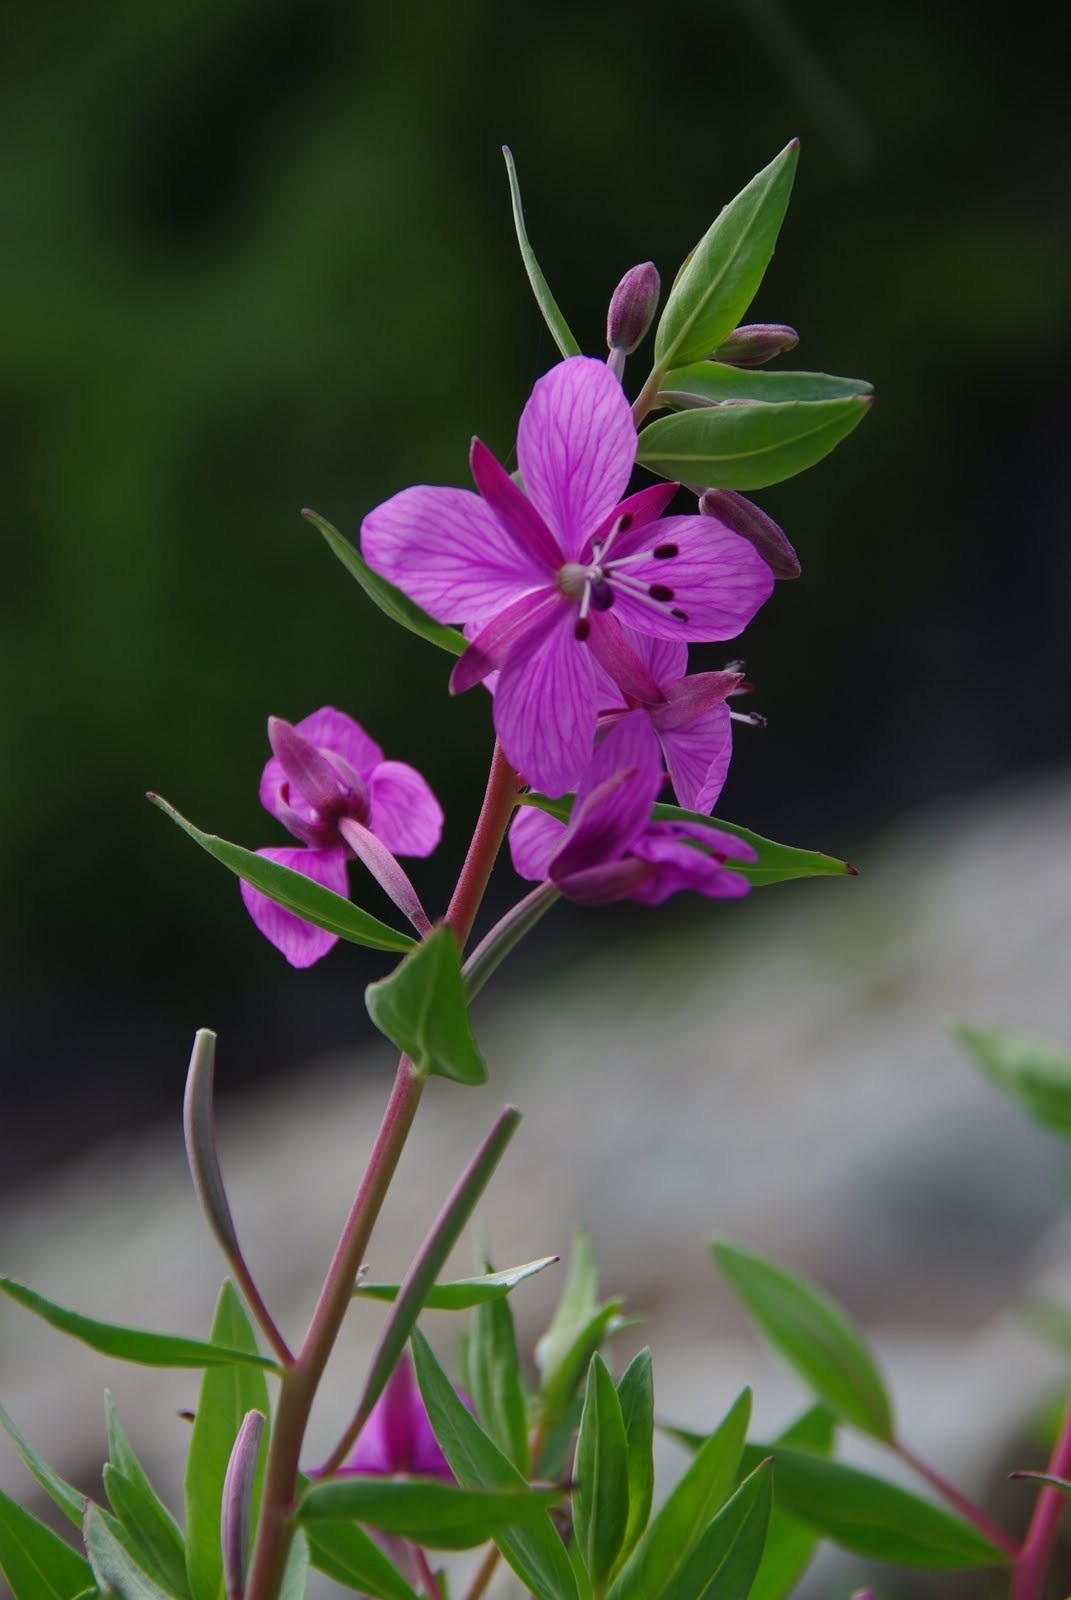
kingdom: Plantae
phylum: Tracheophyta
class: Magnoliopsida
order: Myrtales
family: Onagraceae
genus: Chamaenerion
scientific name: Chamaenerion latifolium
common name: Dwarf fireweed
